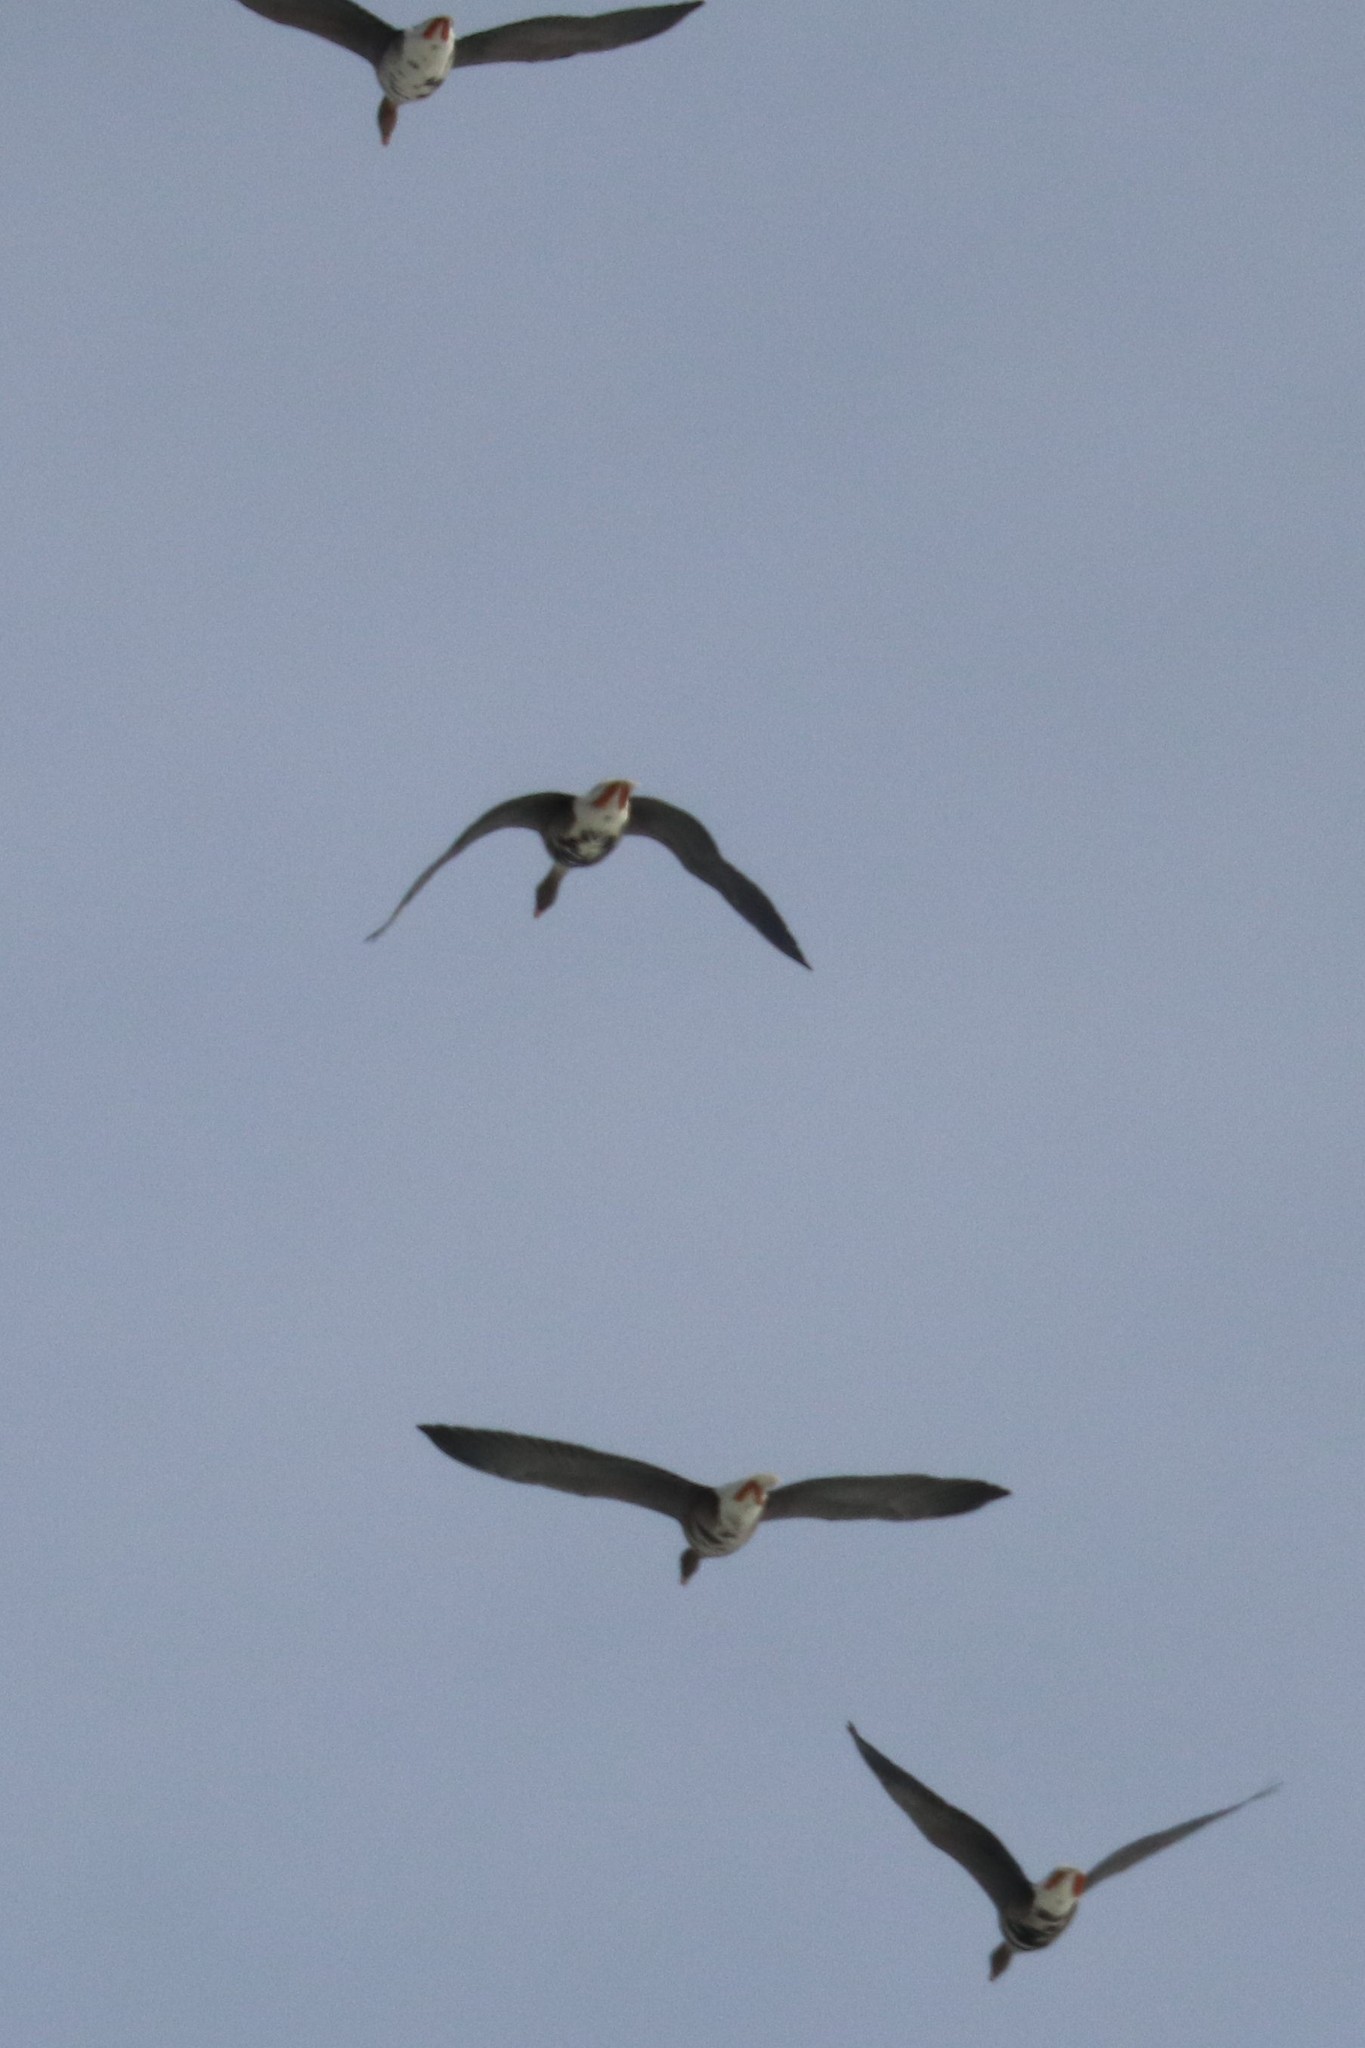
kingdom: Animalia
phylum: Chordata
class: Aves
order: Anseriformes
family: Anatidae
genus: Anser
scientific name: Anser albifrons
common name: Greater white-fronted goose
